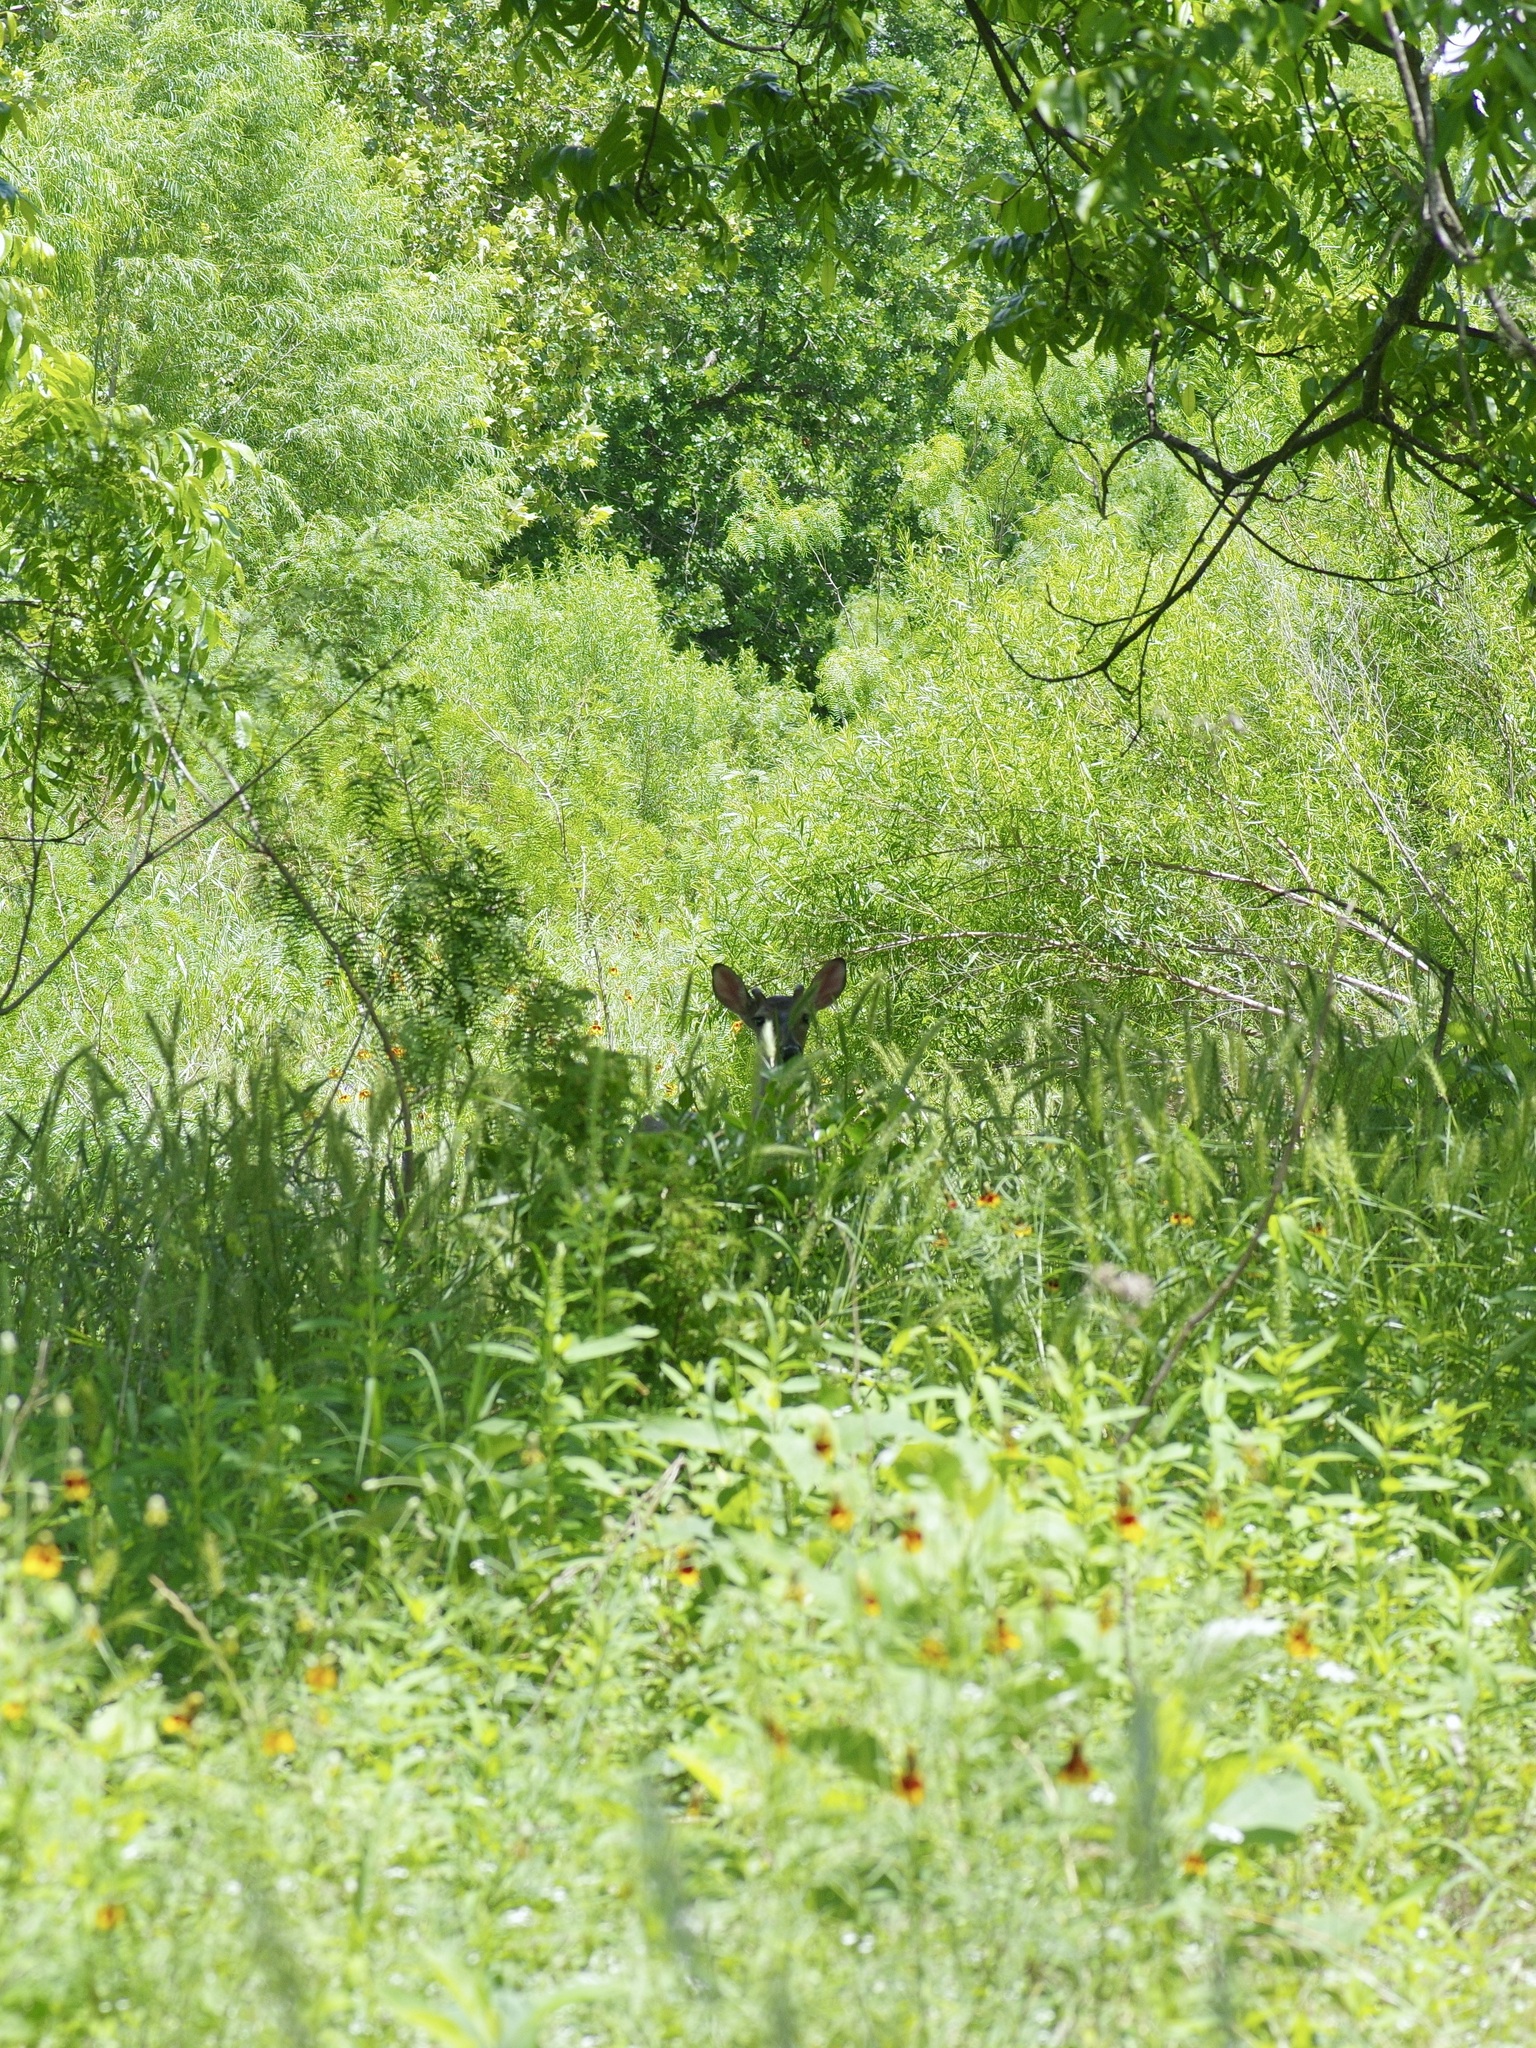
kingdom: Animalia
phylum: Chordata
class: Mammalia
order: Artiodactyla
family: Cervidae
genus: Odocoileus
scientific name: Odocoileus virginianus
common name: White-tailed deer
